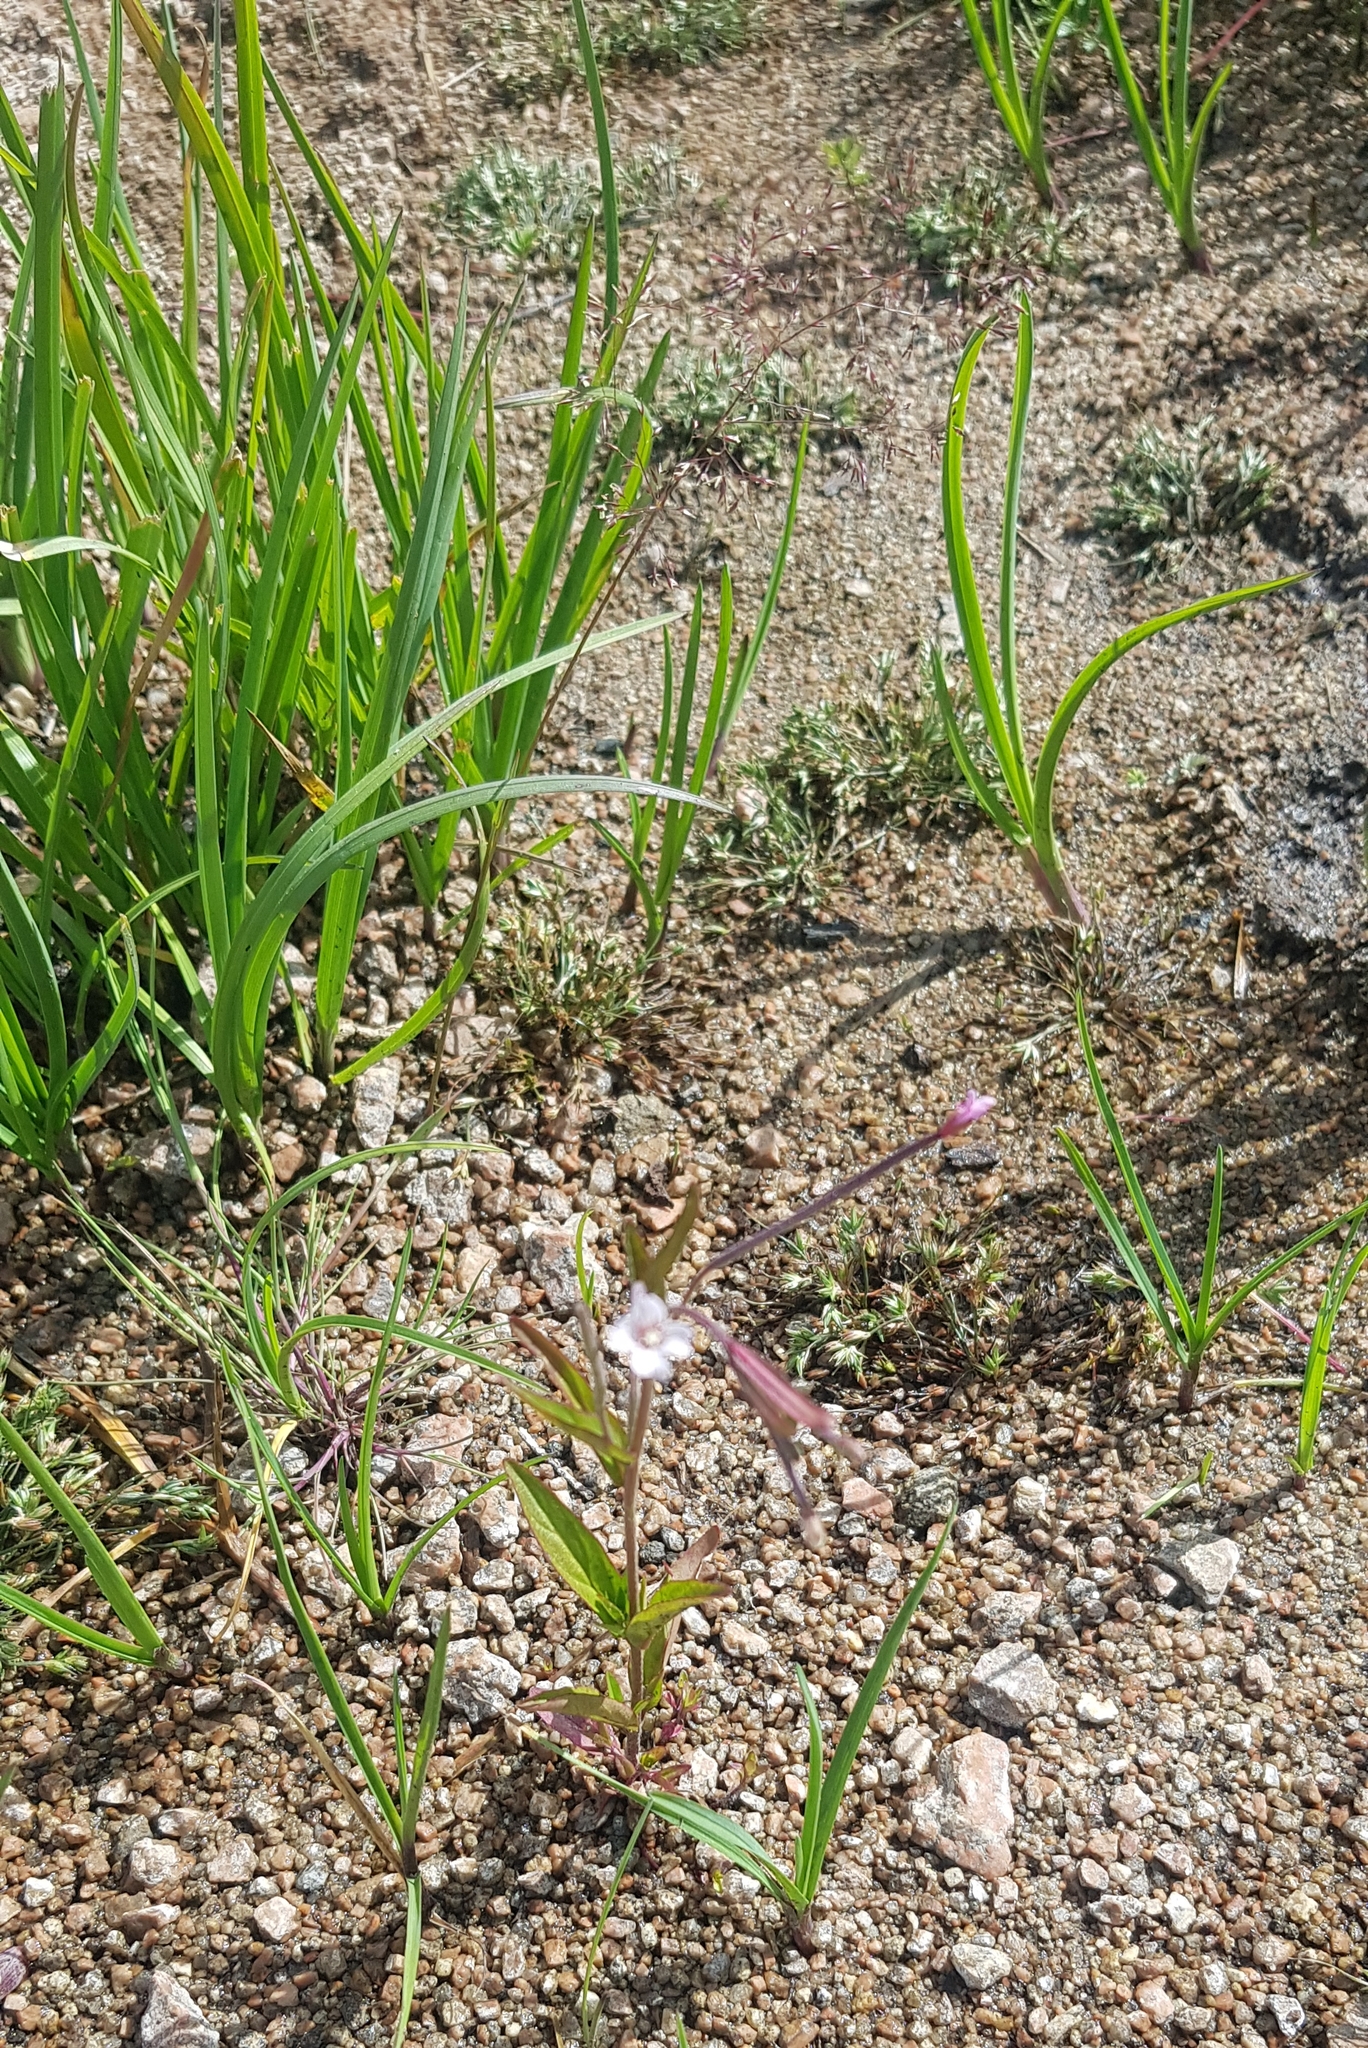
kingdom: Plantae
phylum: Tracheophyta
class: Magnoliopsida
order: Myrtales
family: Onagraceae
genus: Epilobium
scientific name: Epilobium palustre
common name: Marsh willowherb
